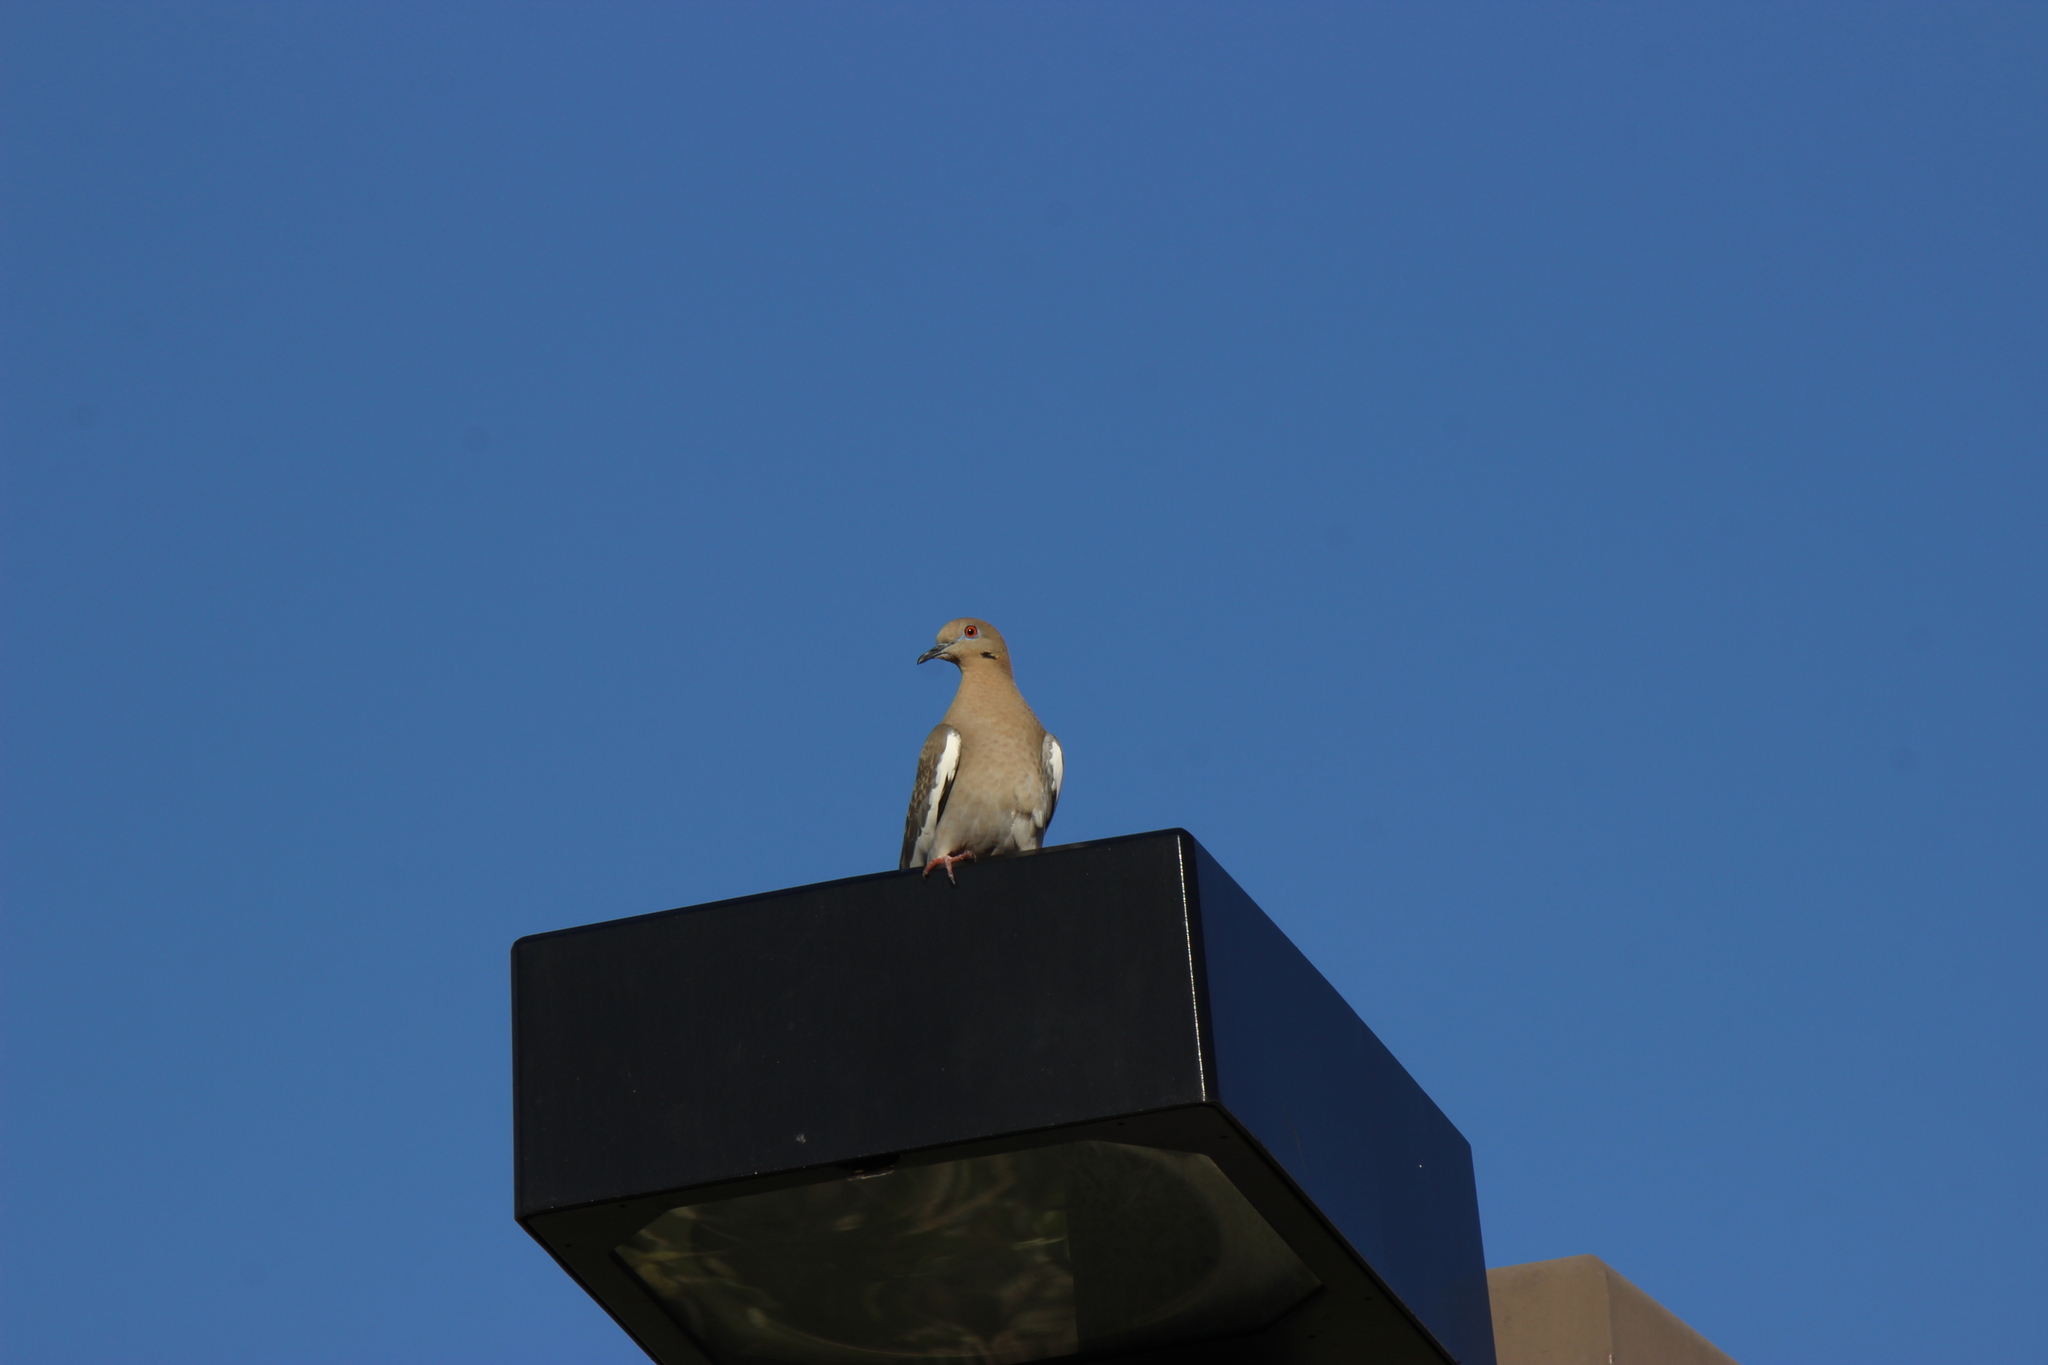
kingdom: Animalia
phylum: Chordata
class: Aves
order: Columbiformes
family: Columbidae
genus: Zenaida
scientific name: Zenaida asiatica
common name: White-winged dove
